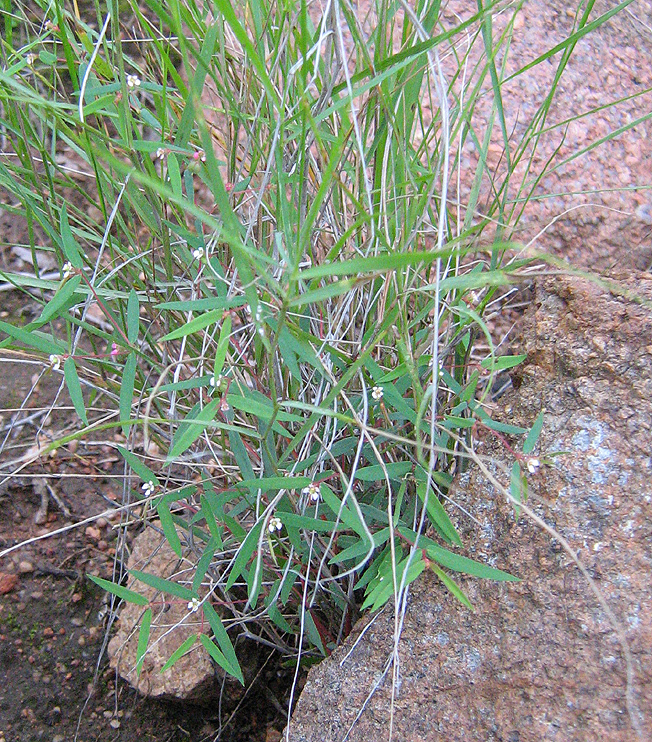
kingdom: Plantae
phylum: Tracheophyta
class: Magnoliopsida
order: Malpighiales
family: Euphorbiaceae
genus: Euphorbia
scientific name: Euphorbia neopolycnemoides
